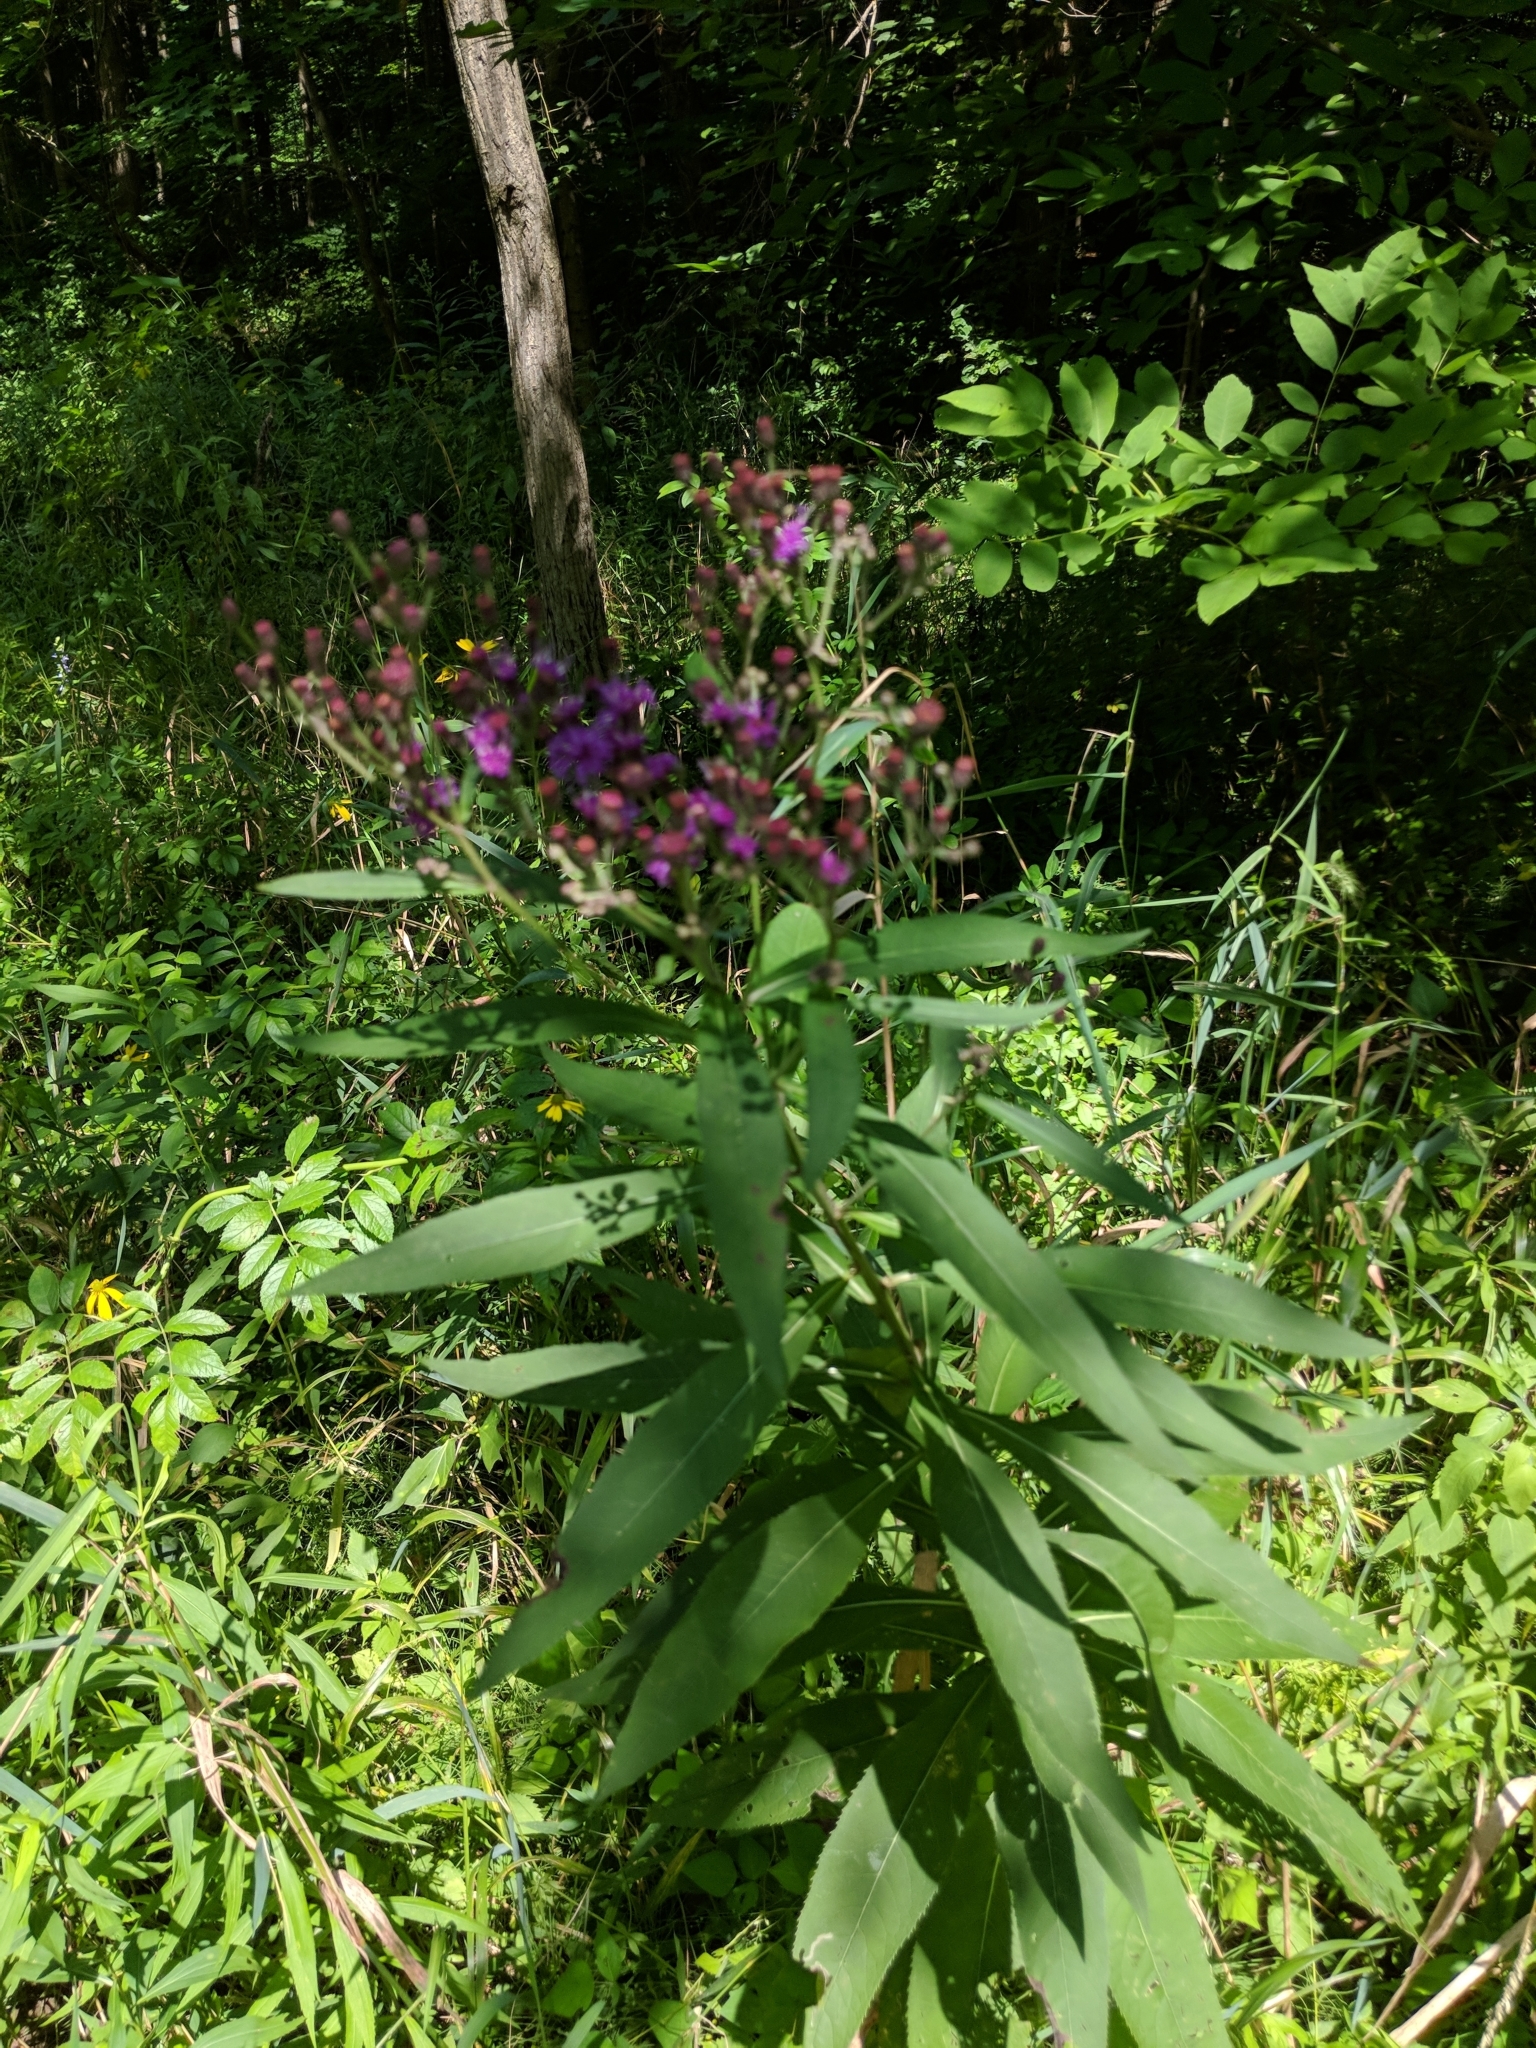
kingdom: Plantae
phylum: Tracheophyta
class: Magnoliopsida
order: Asterales
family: Asteraceae
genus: Vernonia
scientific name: Vernonia gigantea
